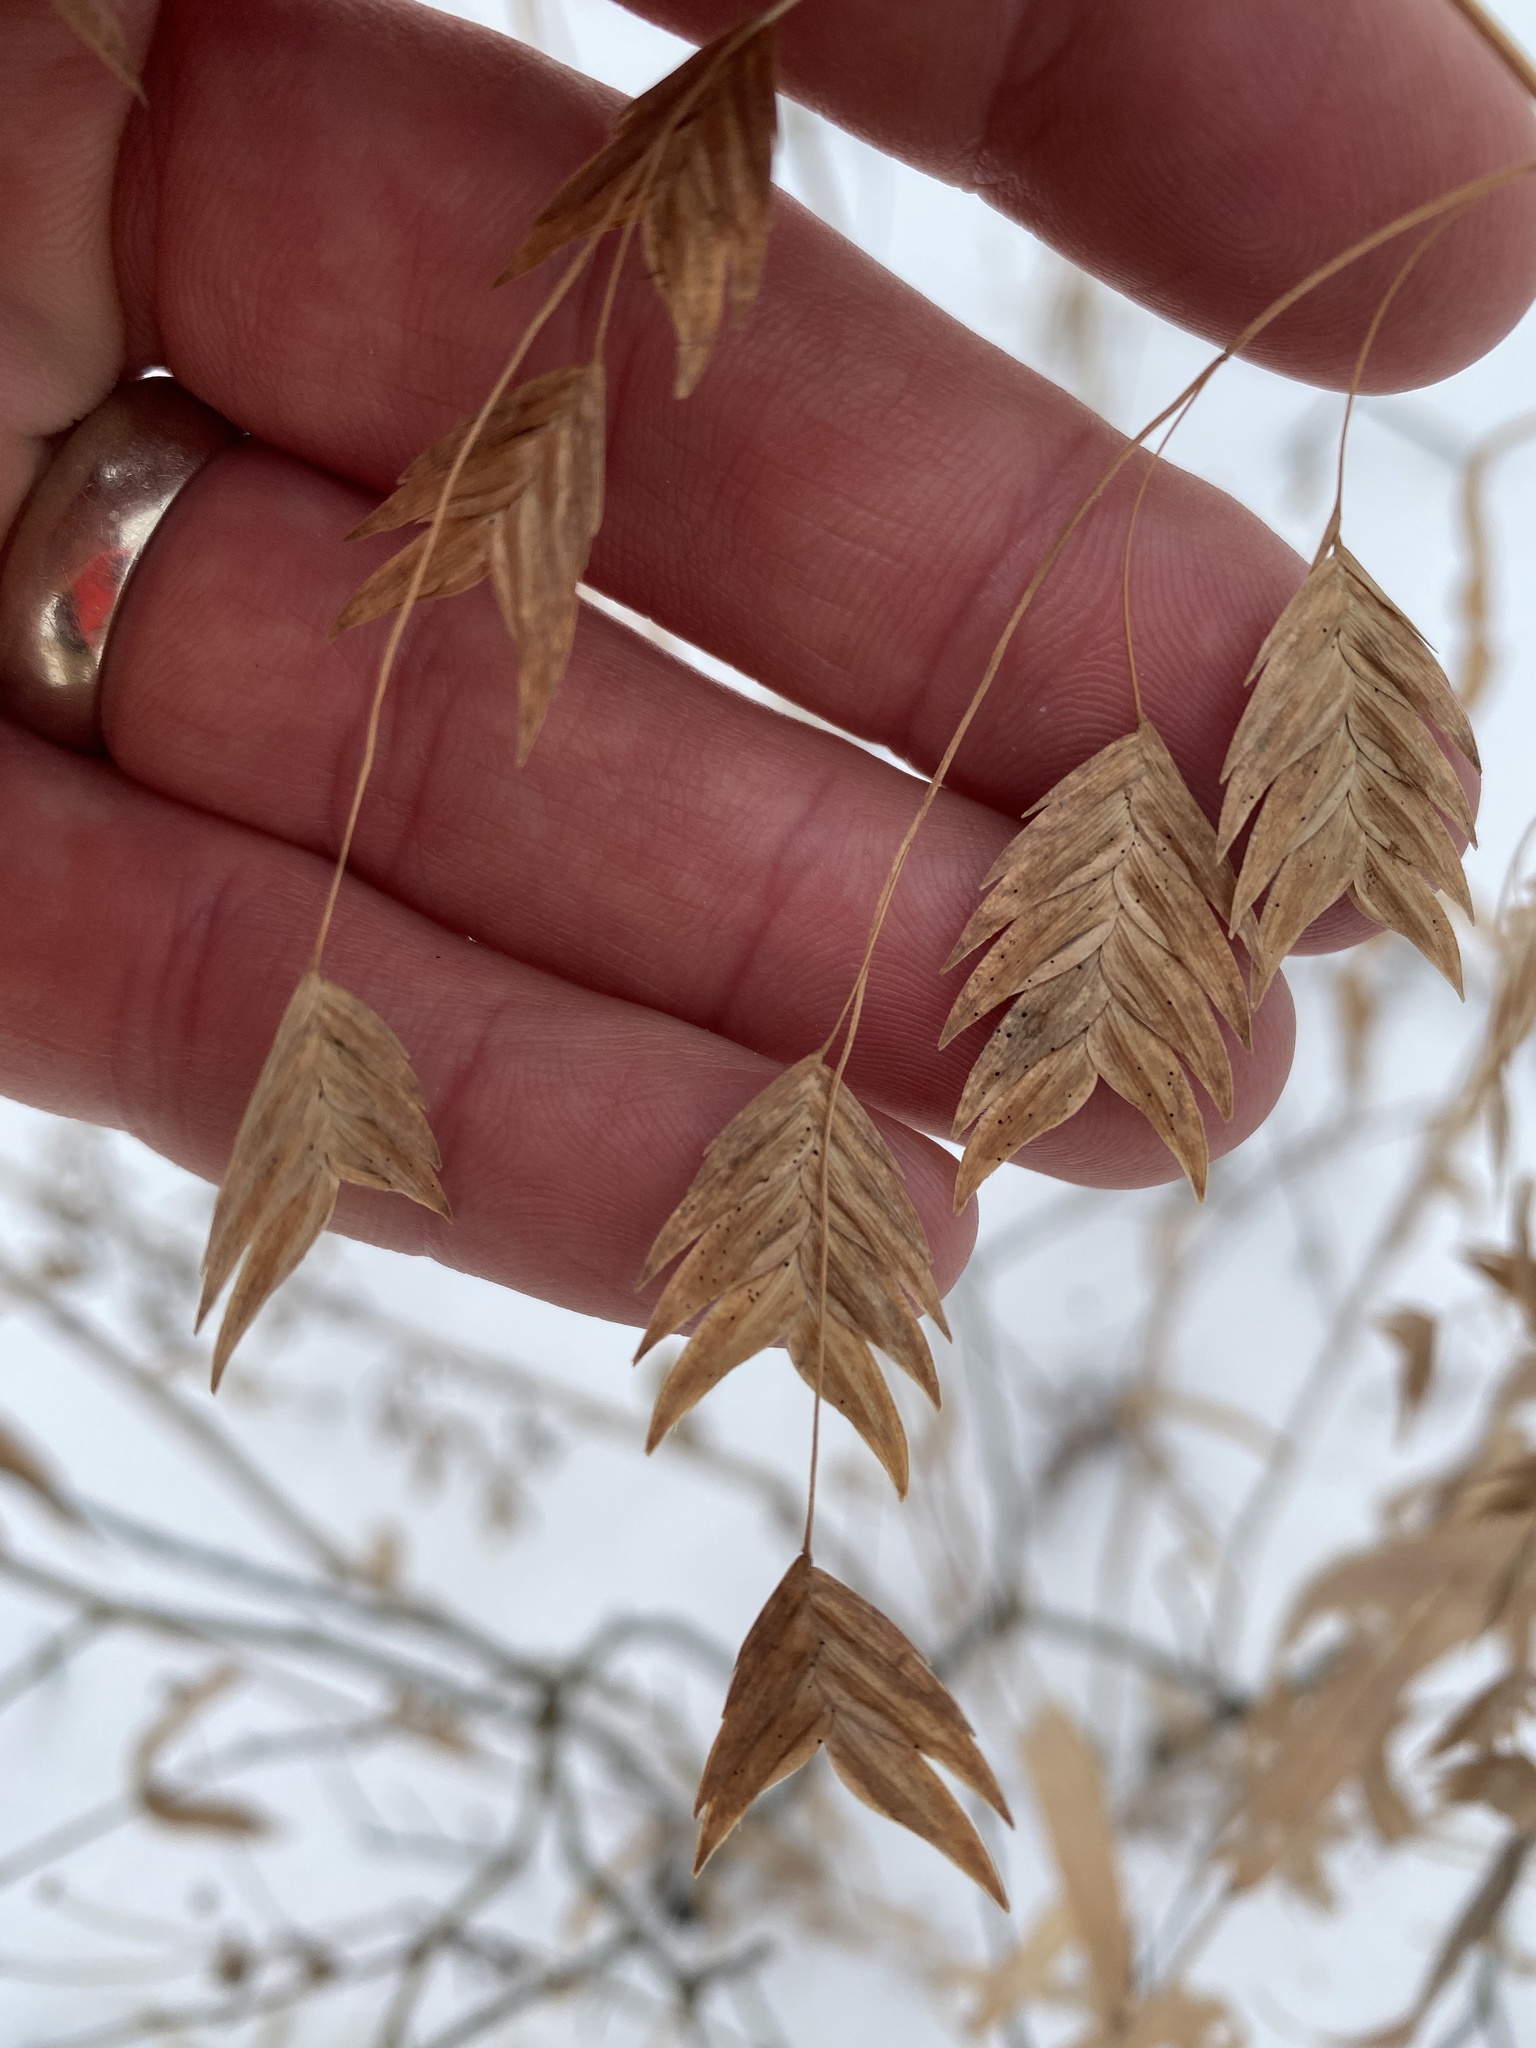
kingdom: Plantae
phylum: Tracheophyta
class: Liliopsida
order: Poales
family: Poaceae
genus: Chasmanthium
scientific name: Chasmanthium latifolium
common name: Broad-leaved chasmanthium
